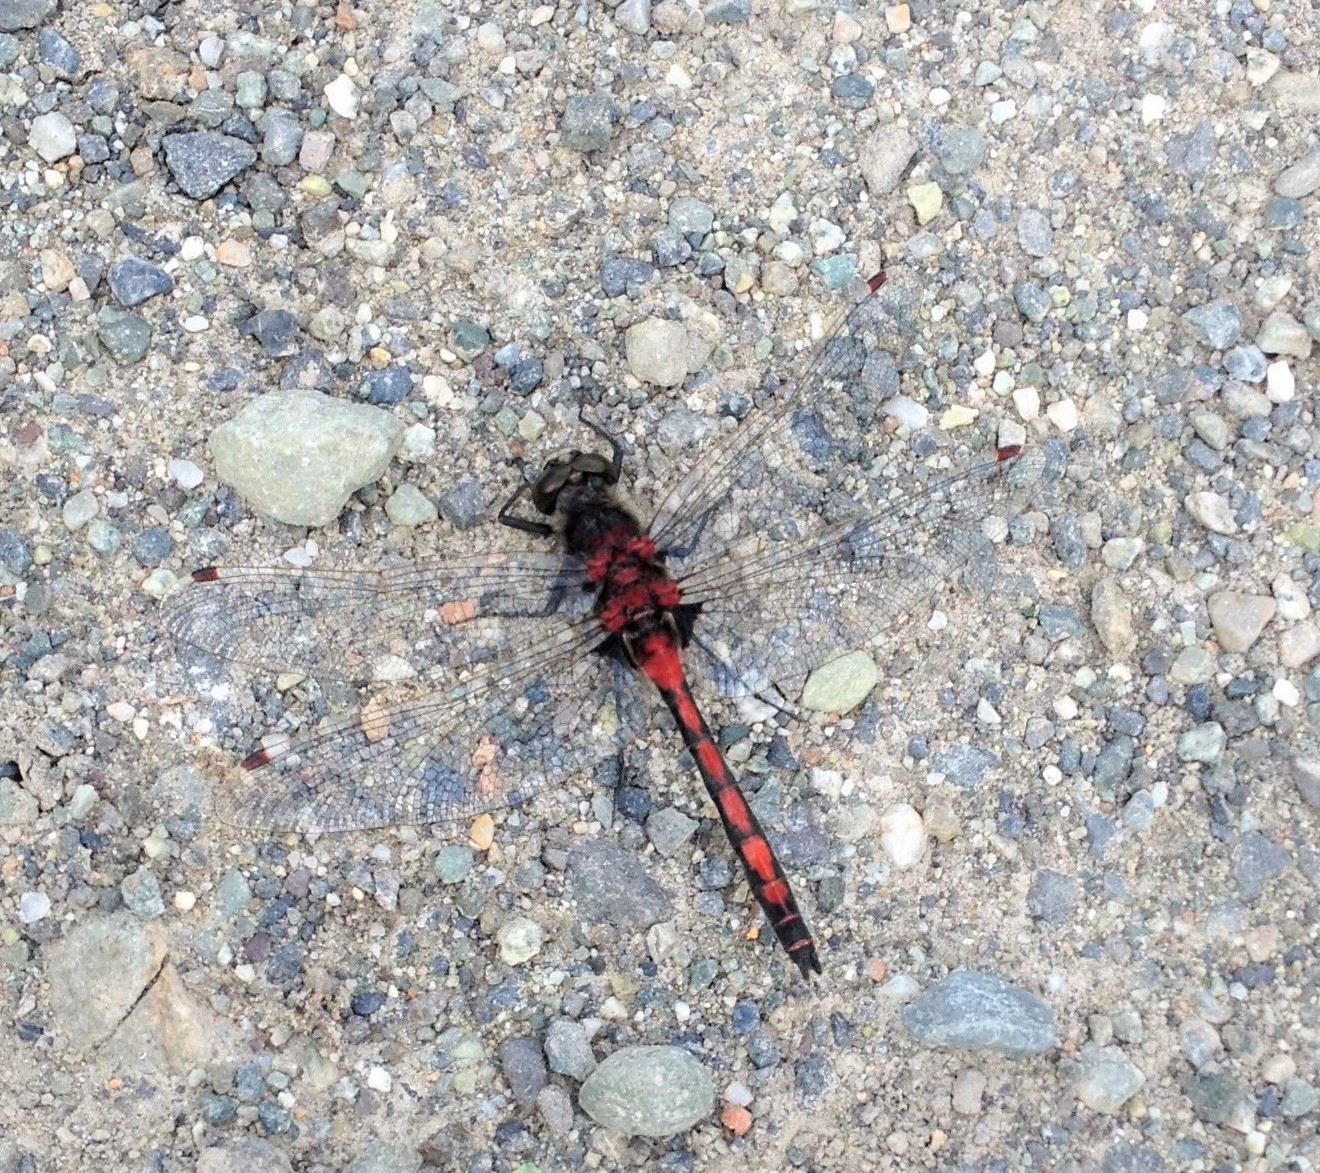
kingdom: Animalia
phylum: Arthropoda
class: Insecta
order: Odonata
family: Libellulidae
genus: Leucorrhinia
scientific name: Leucorrhinia borealis
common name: Boreal whiteface
